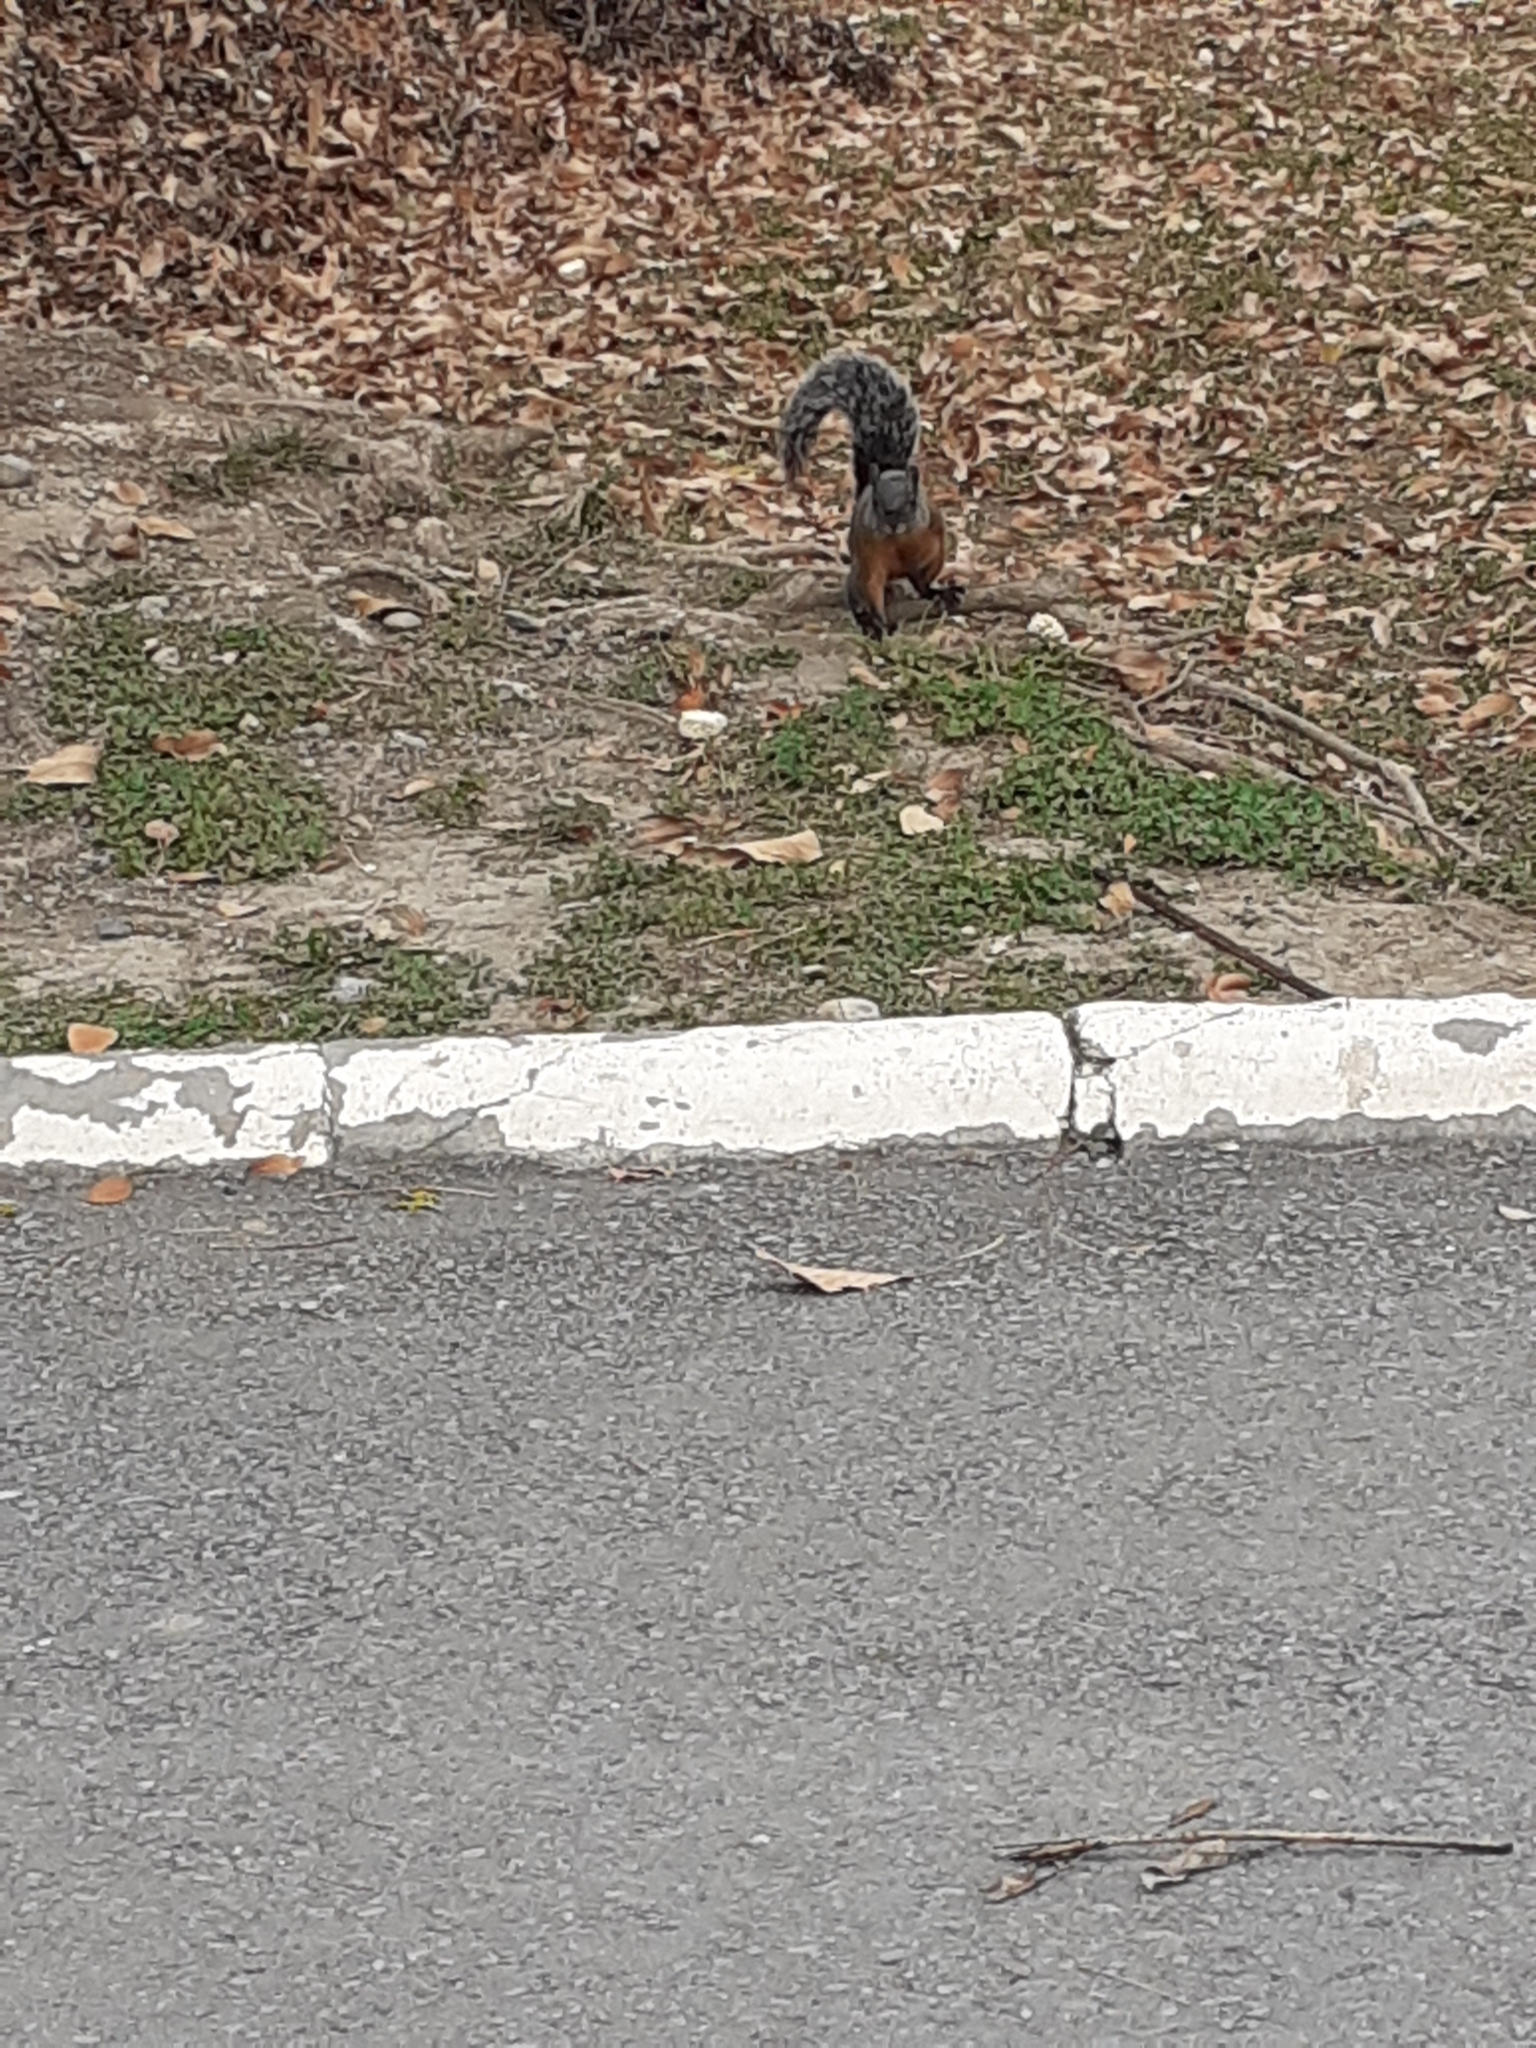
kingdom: Animalia
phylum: Chordata
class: Mammalia
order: Rodentia
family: Sciuridae
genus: Sciurus
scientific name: Sciurus aureogaster
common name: Red-bellied squirrel
